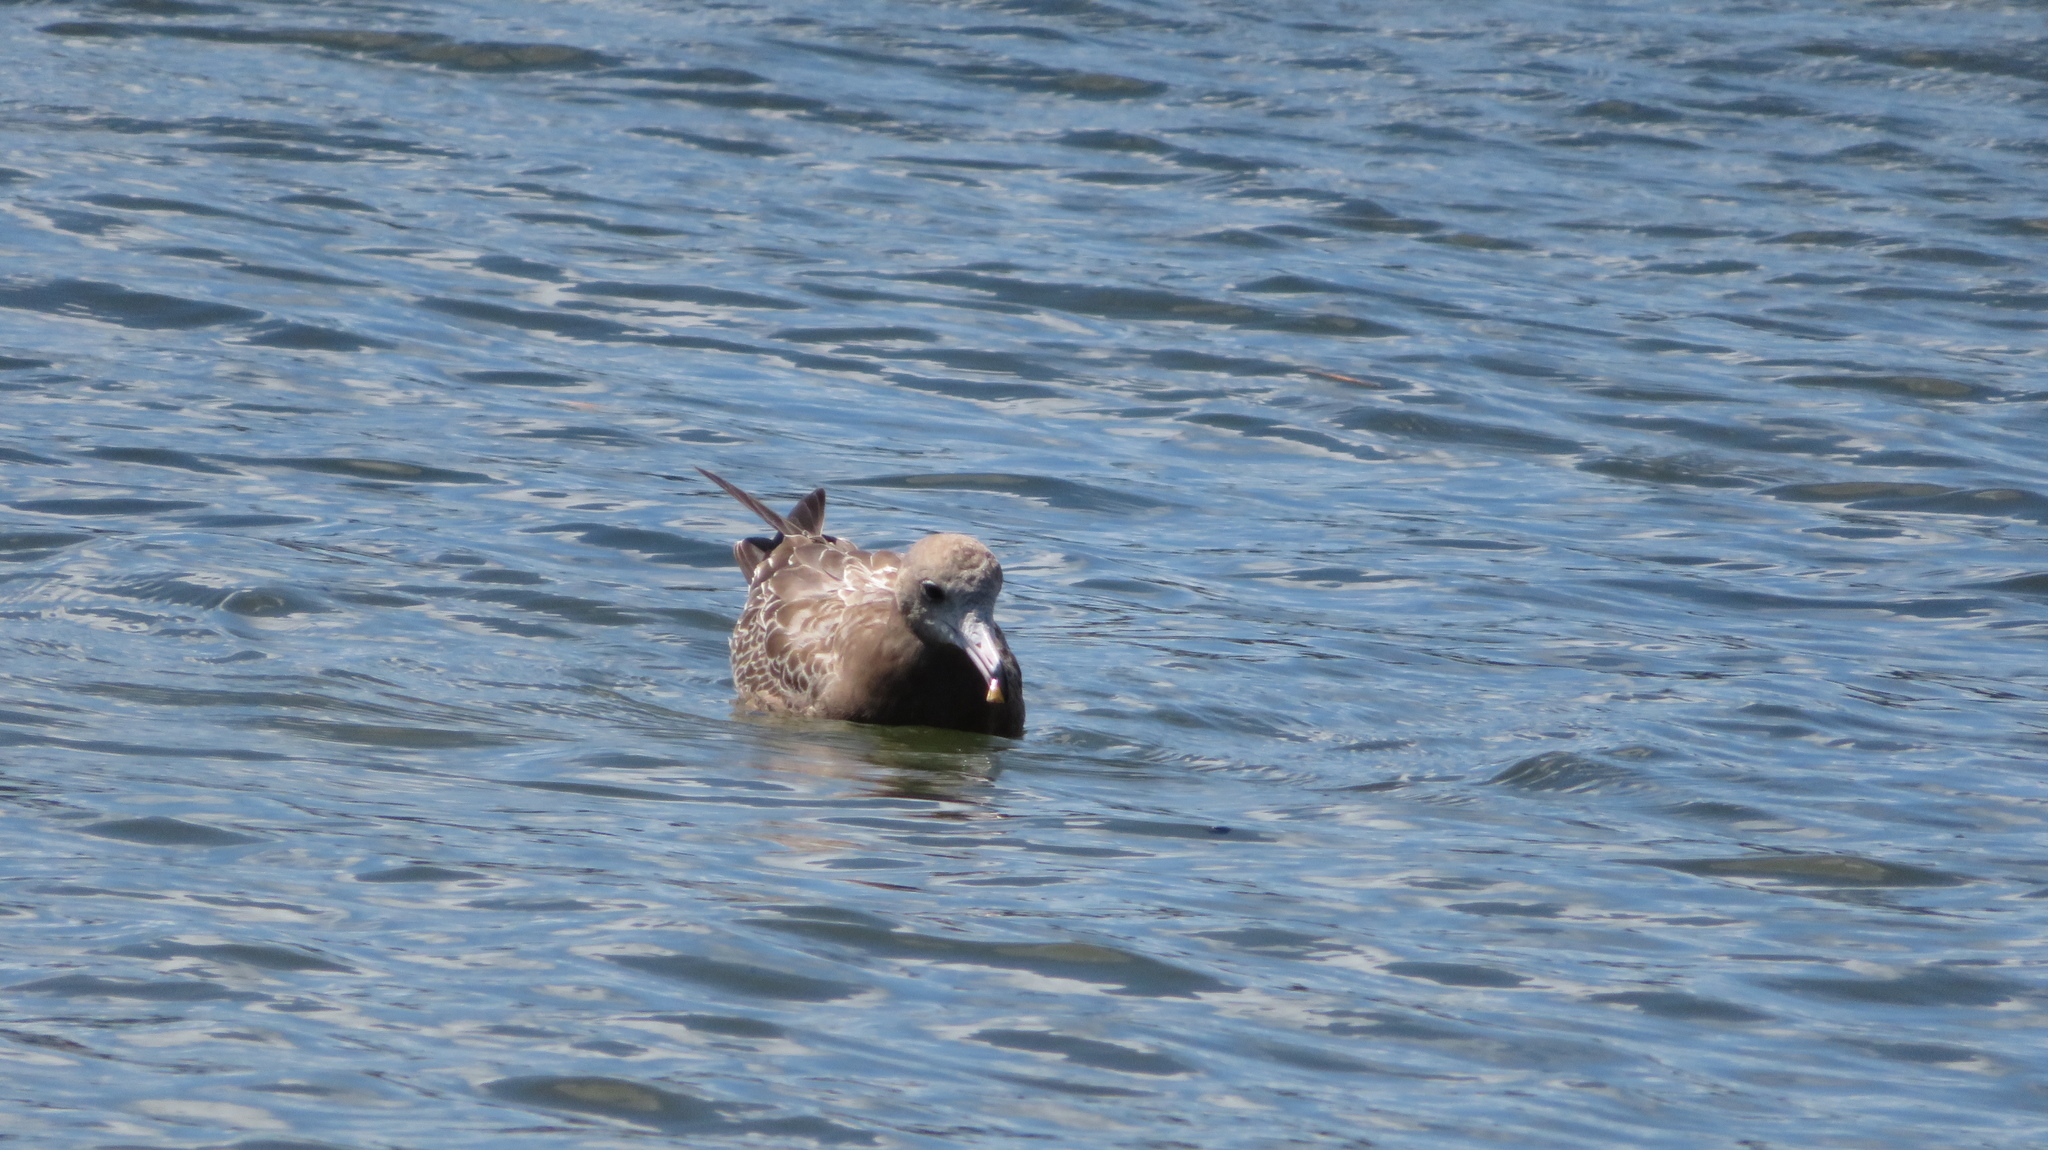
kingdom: Animalia
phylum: Chordata
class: Aves
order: Charadriiformes
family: Laridae
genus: Larus
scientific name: Larus crassirostris
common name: Black-tailed gull
